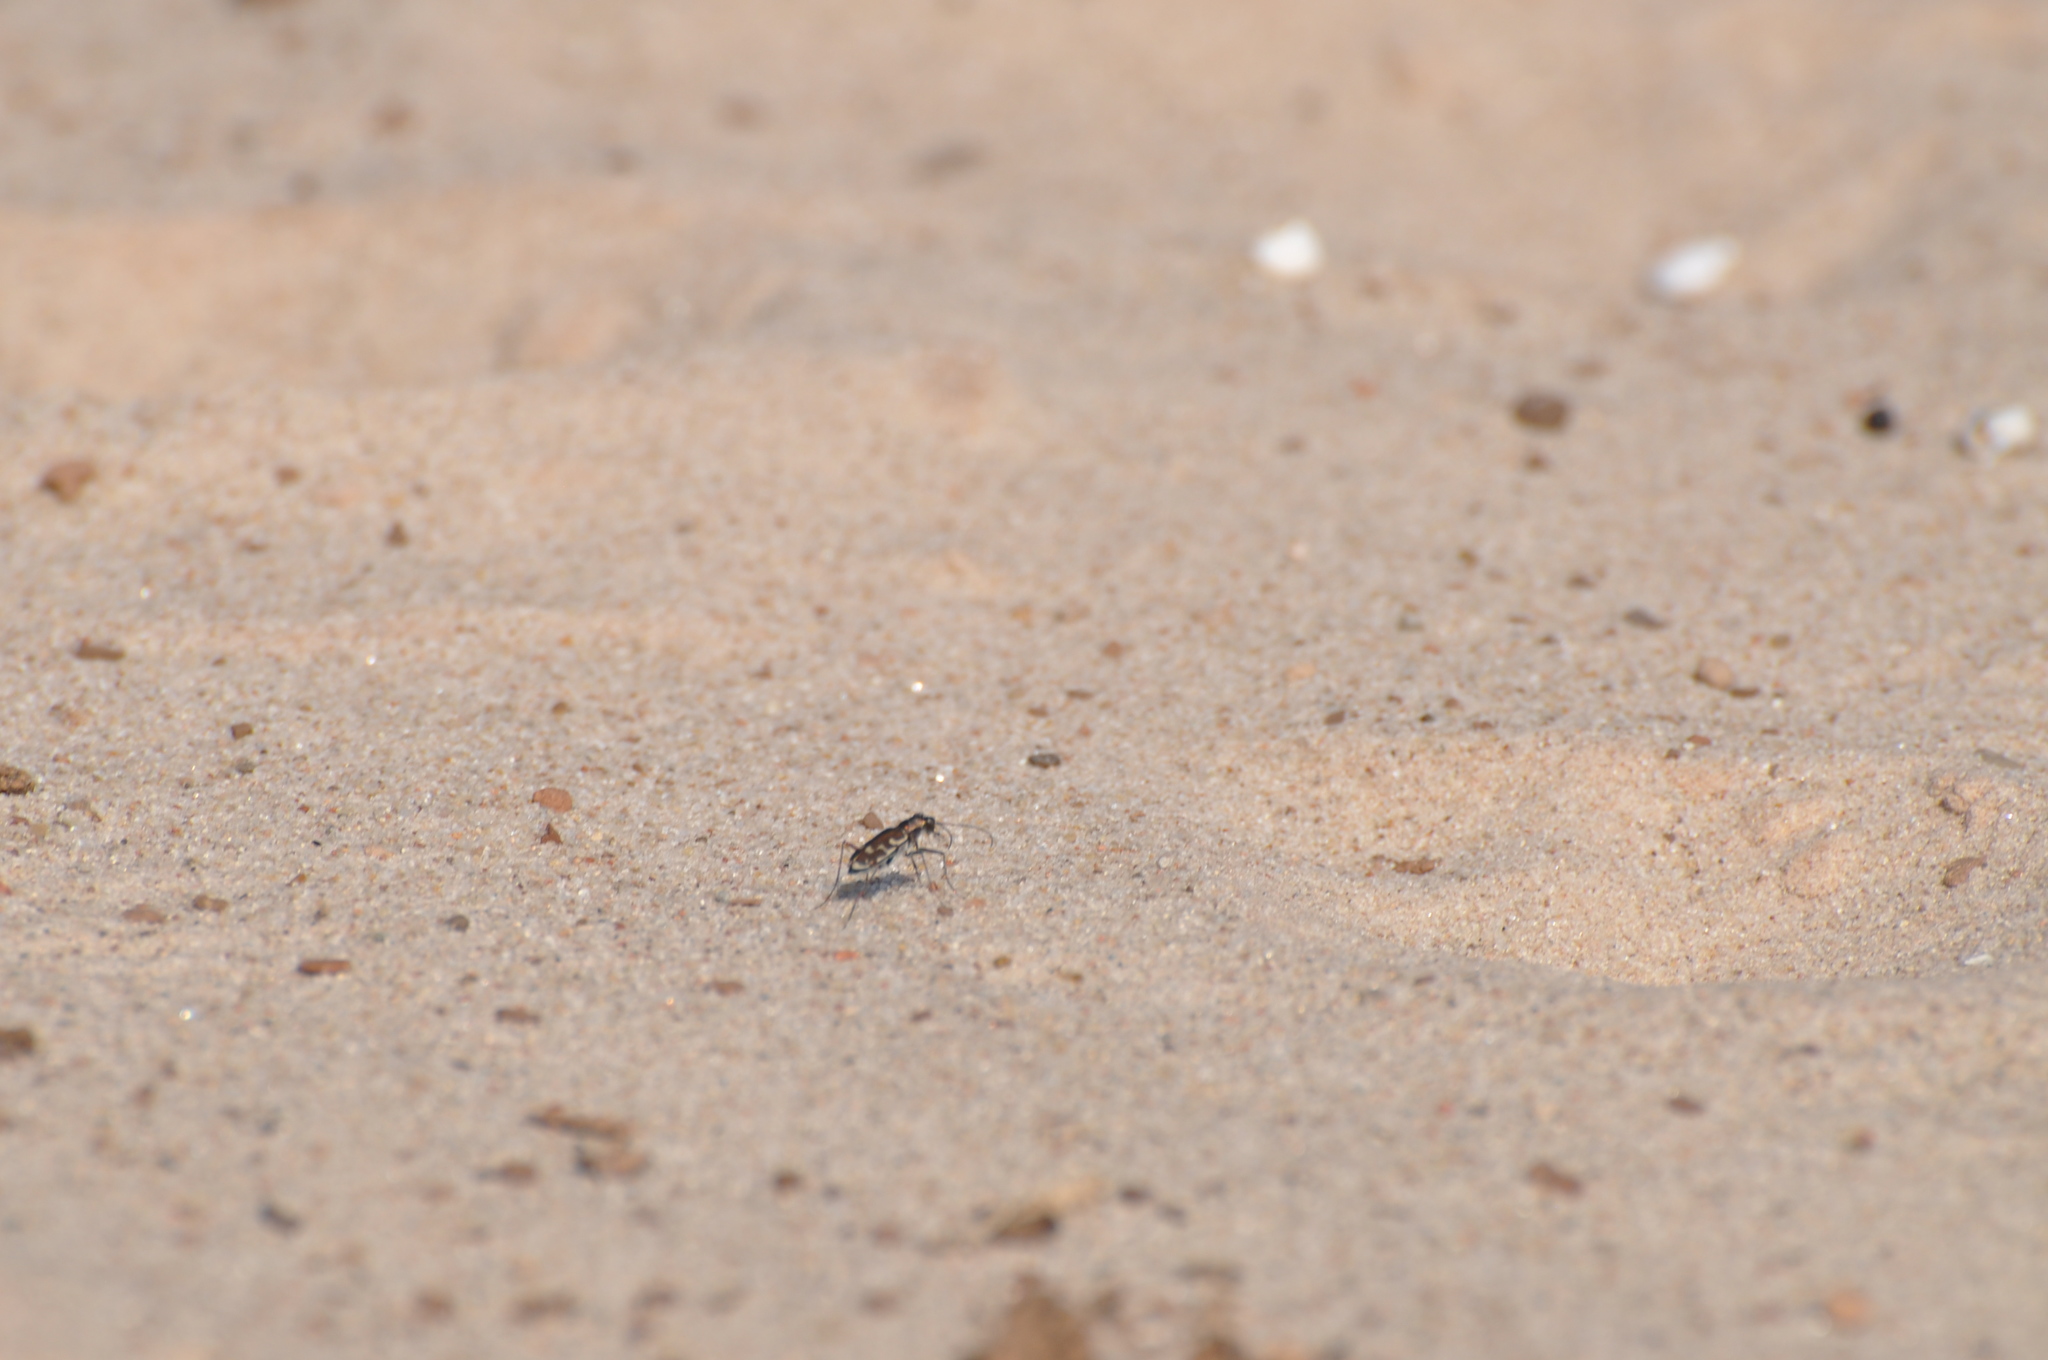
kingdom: Animalia
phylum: Arthropoda
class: Insecta
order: Coleoptera
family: Carabidae
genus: Cicindela
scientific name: Cicindela repanda
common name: Bronzed tiger beetle
